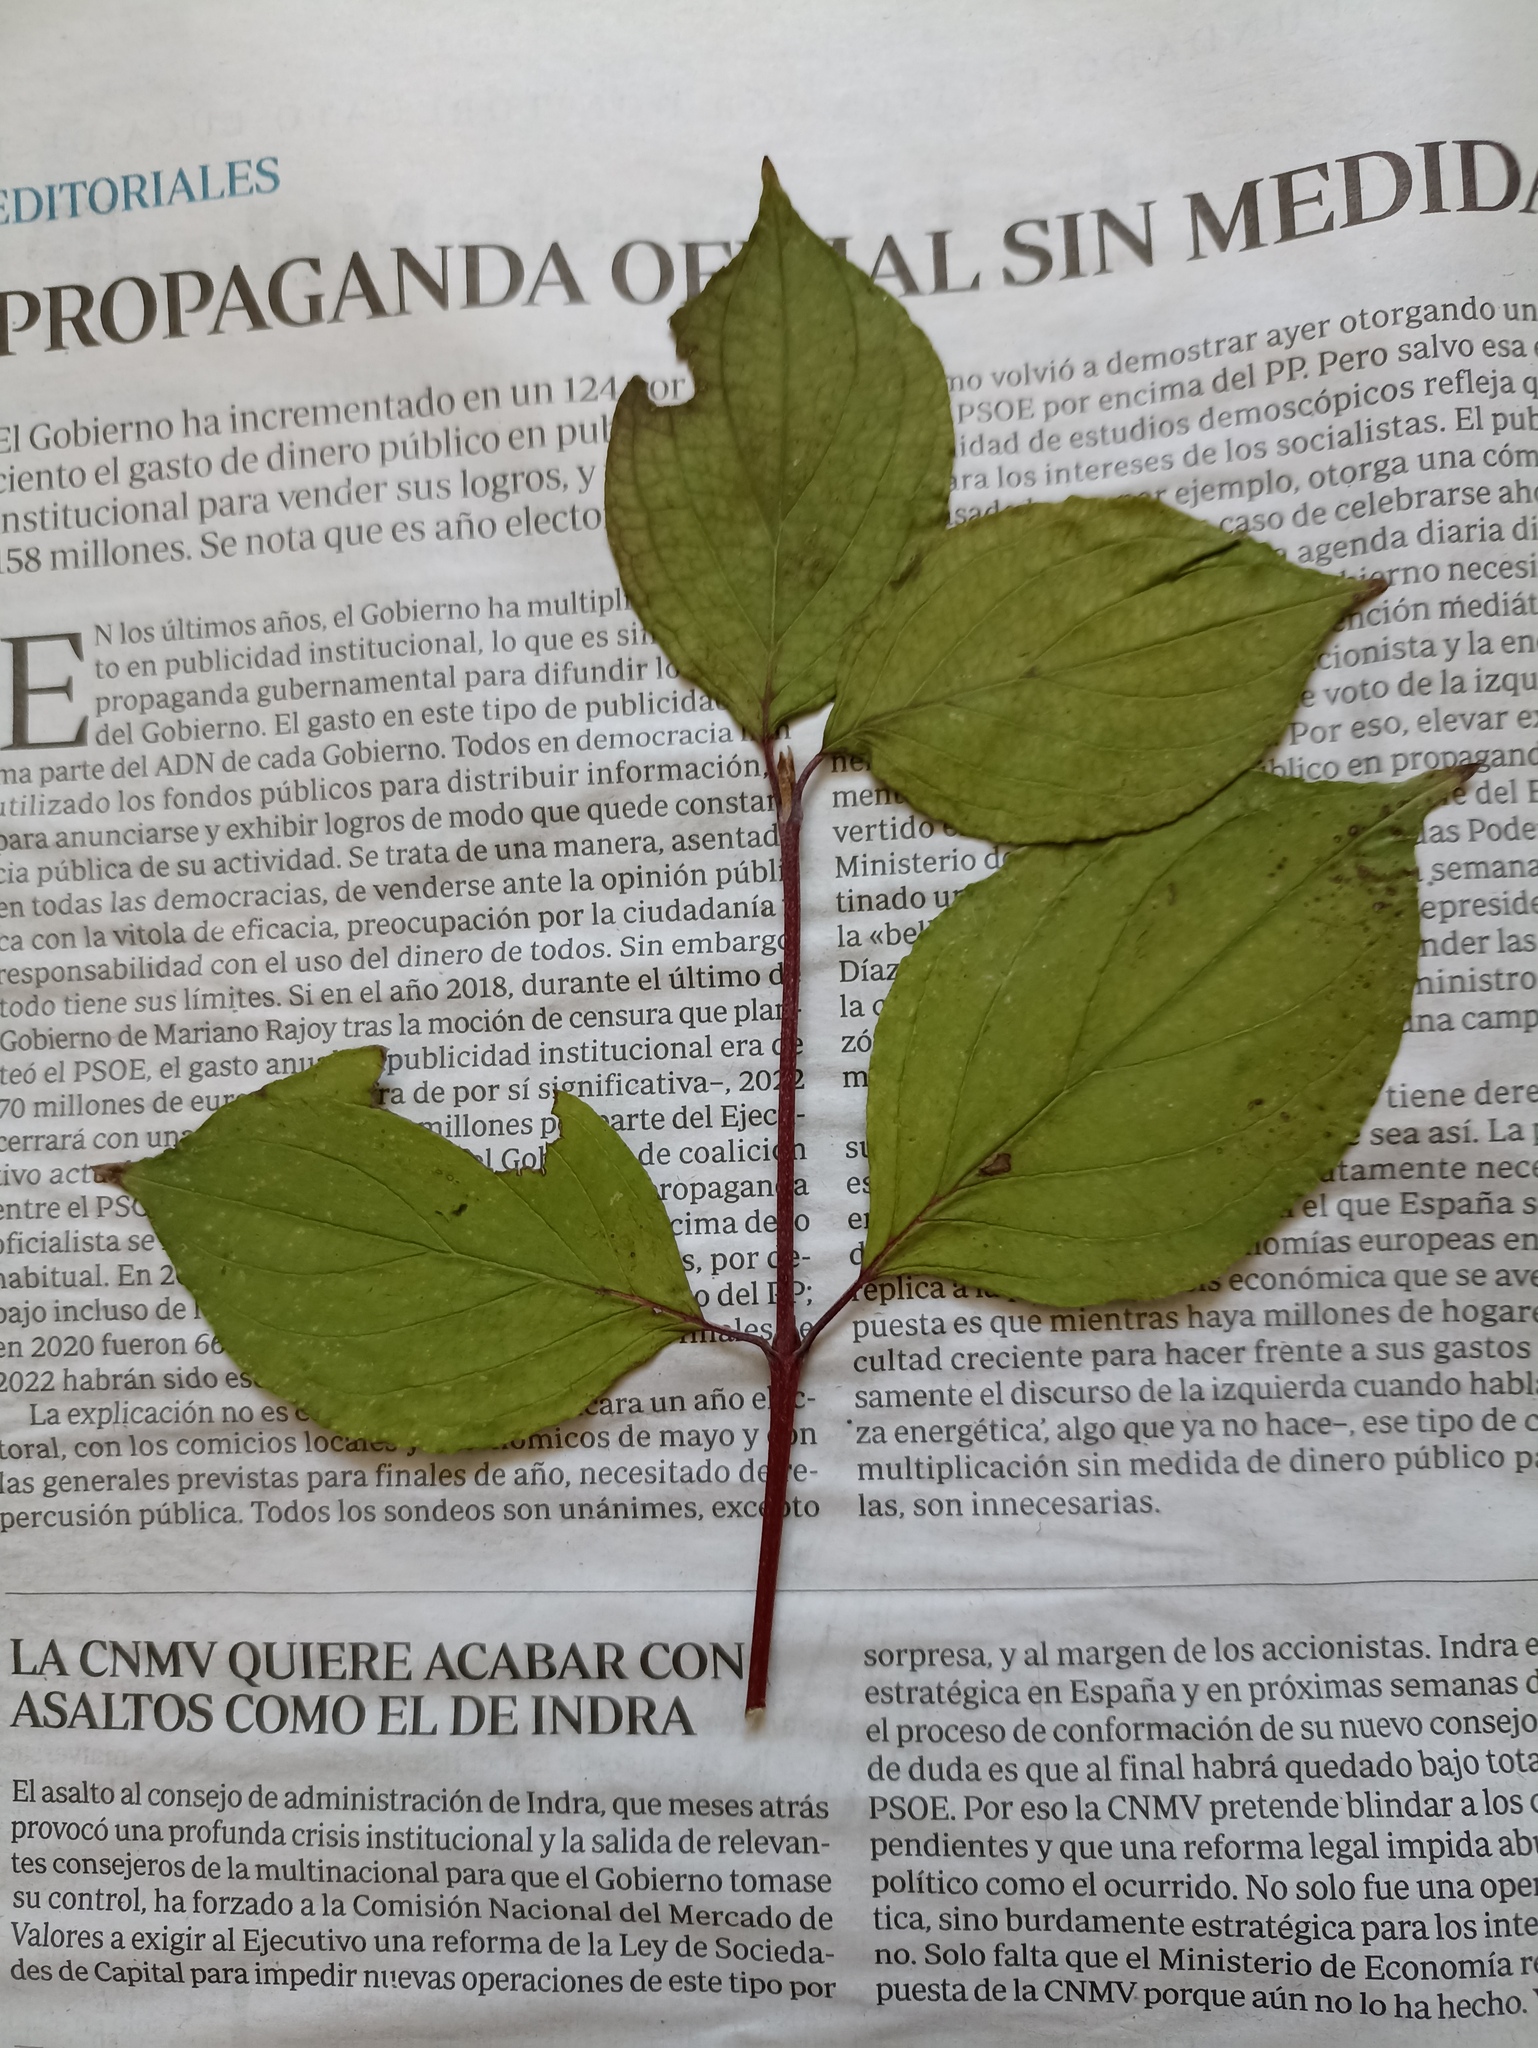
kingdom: Plantae
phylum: Tracheophyta
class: Magnoliopsida
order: Cornales
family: Cornaceae
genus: Cornus
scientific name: Cornus sanguinea
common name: Dogwood
